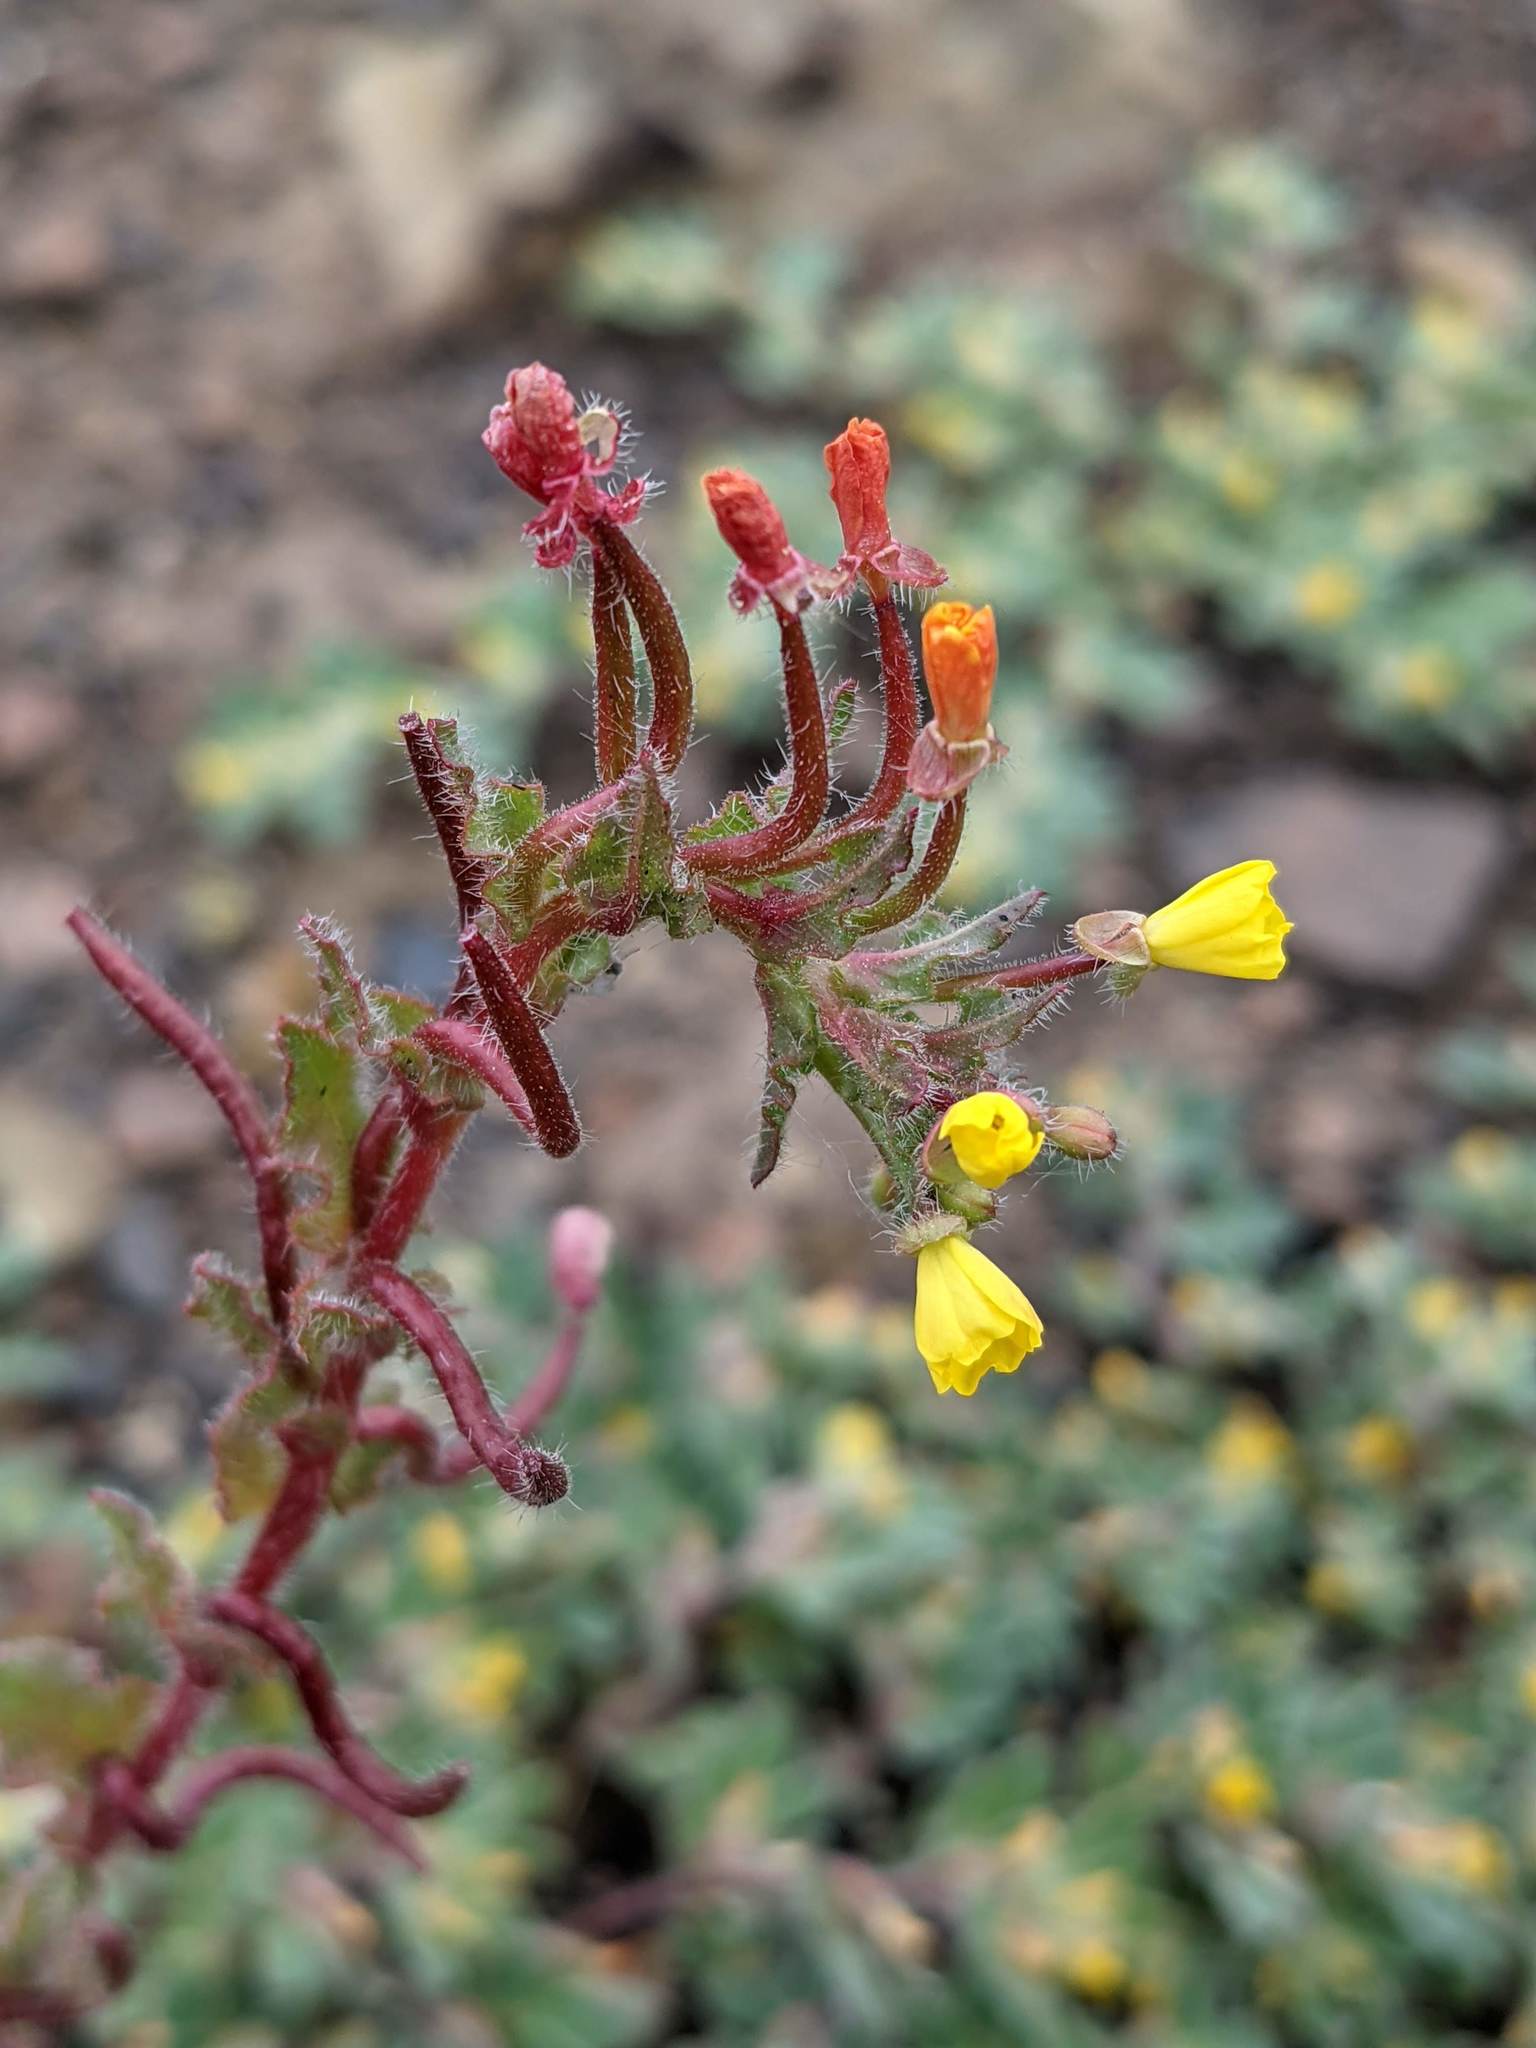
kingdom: Plantae
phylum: Tracheophyta
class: Magnoliopsida
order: Myrtales
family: Onagraceae
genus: Camissoniopsis
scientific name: Camissoniopsis intermedia
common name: Intermediate suncup
